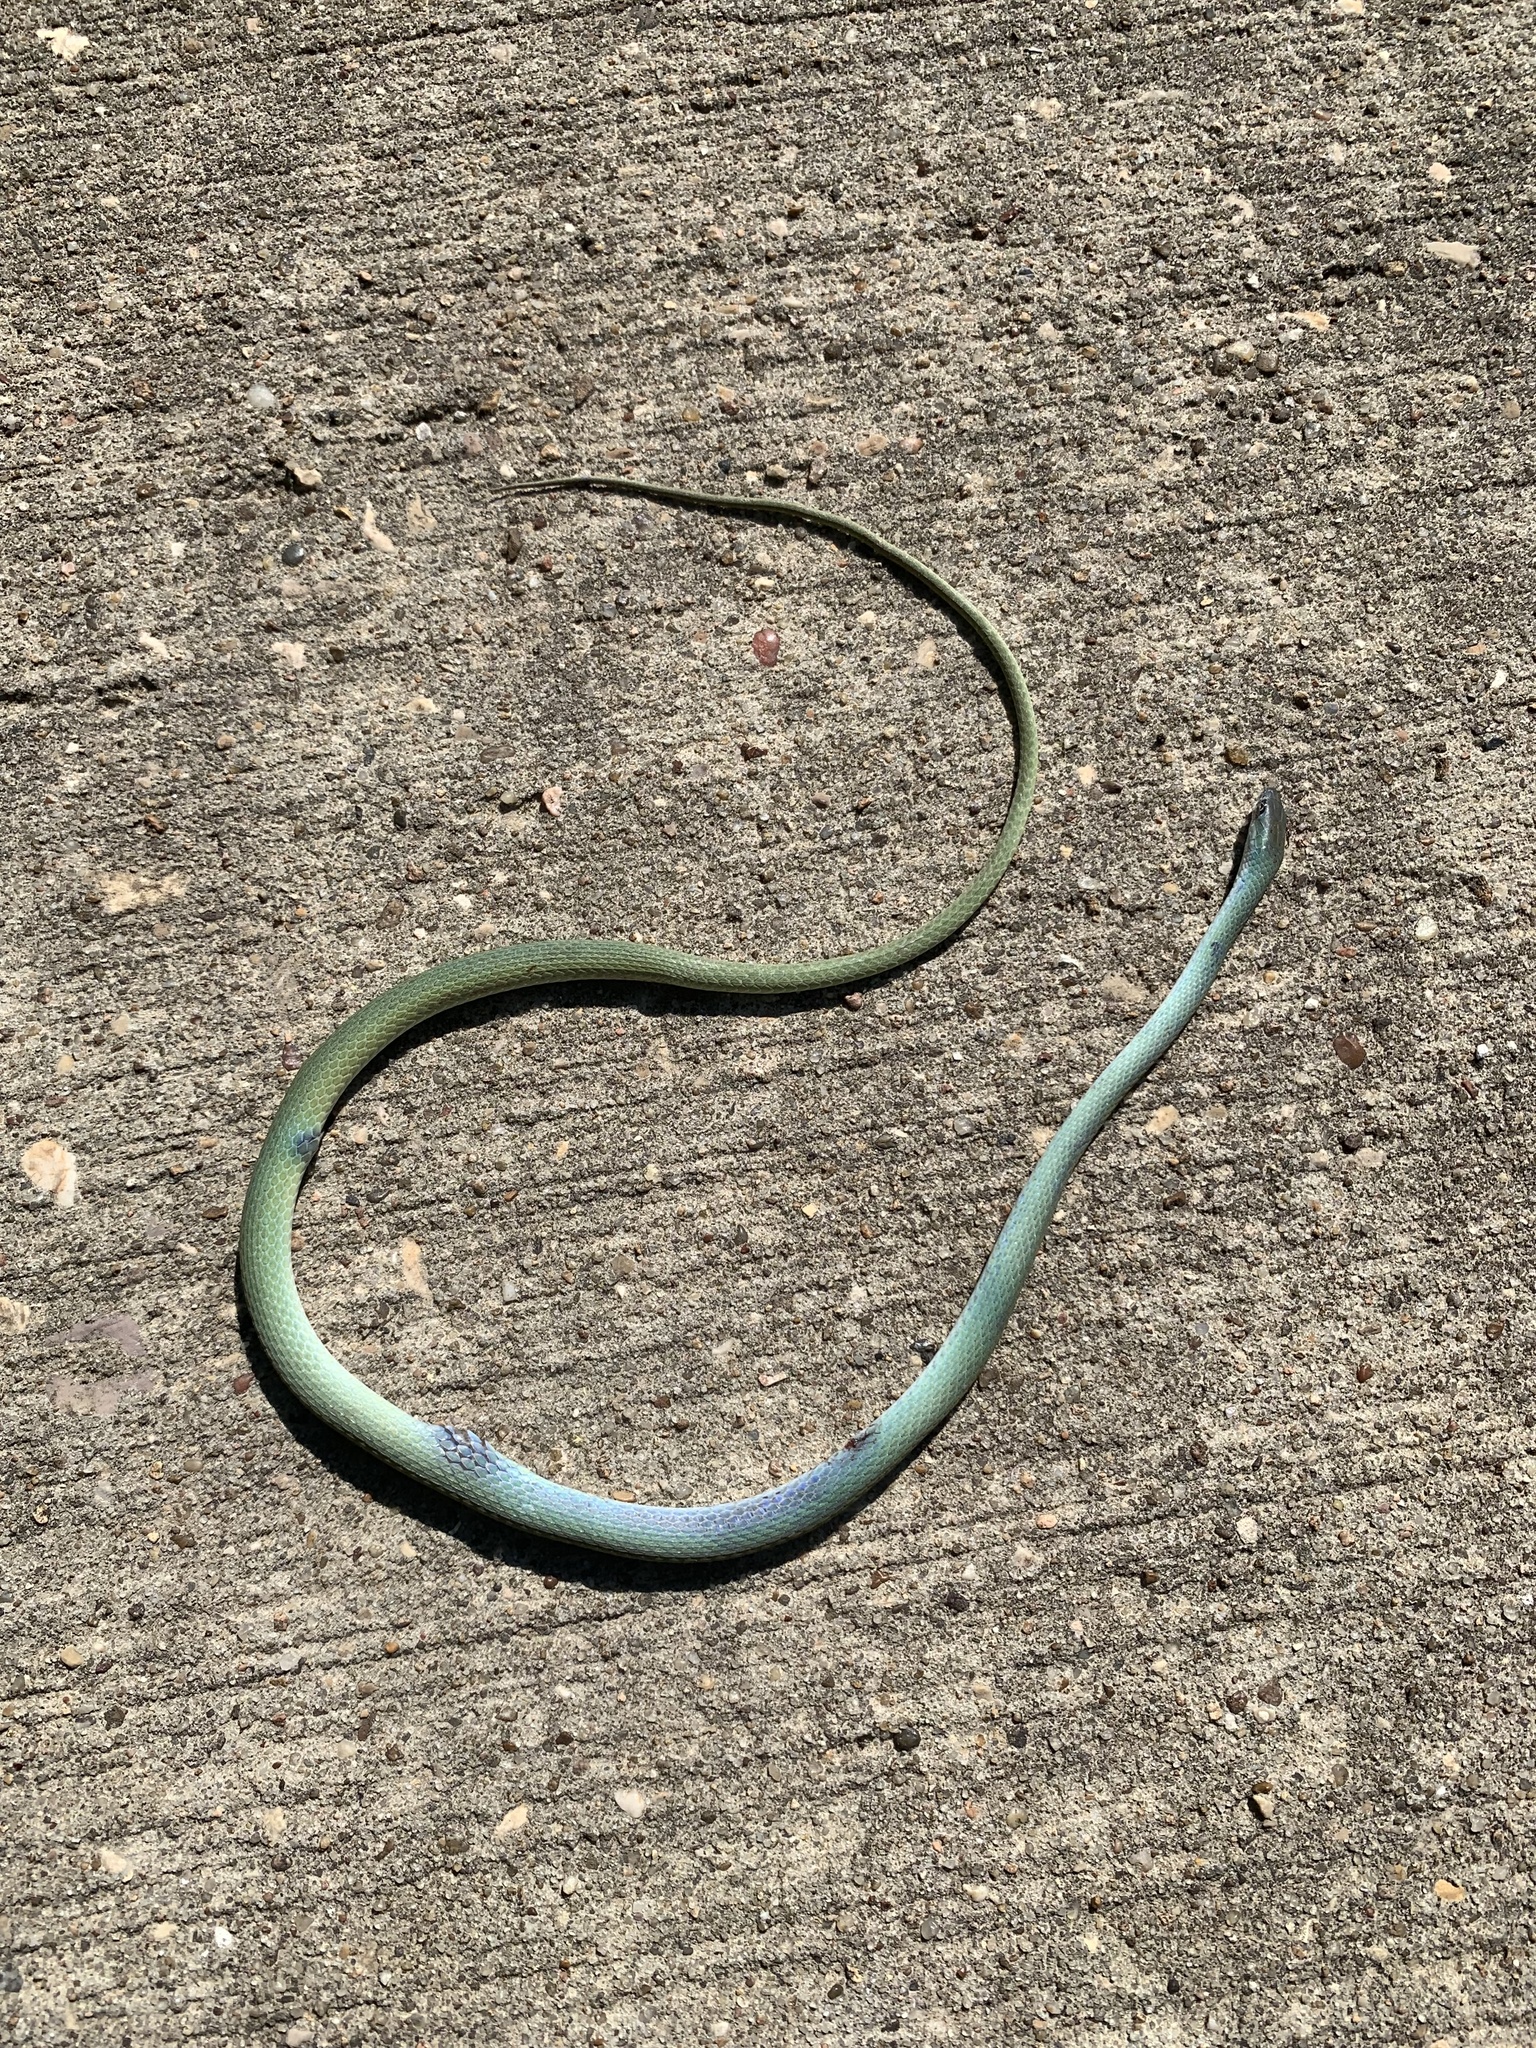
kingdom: Animalia
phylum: Chordata
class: Squamata
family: Colubridae
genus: Opheodrys
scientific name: Opheodrys aestivus
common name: Rough greensnake
